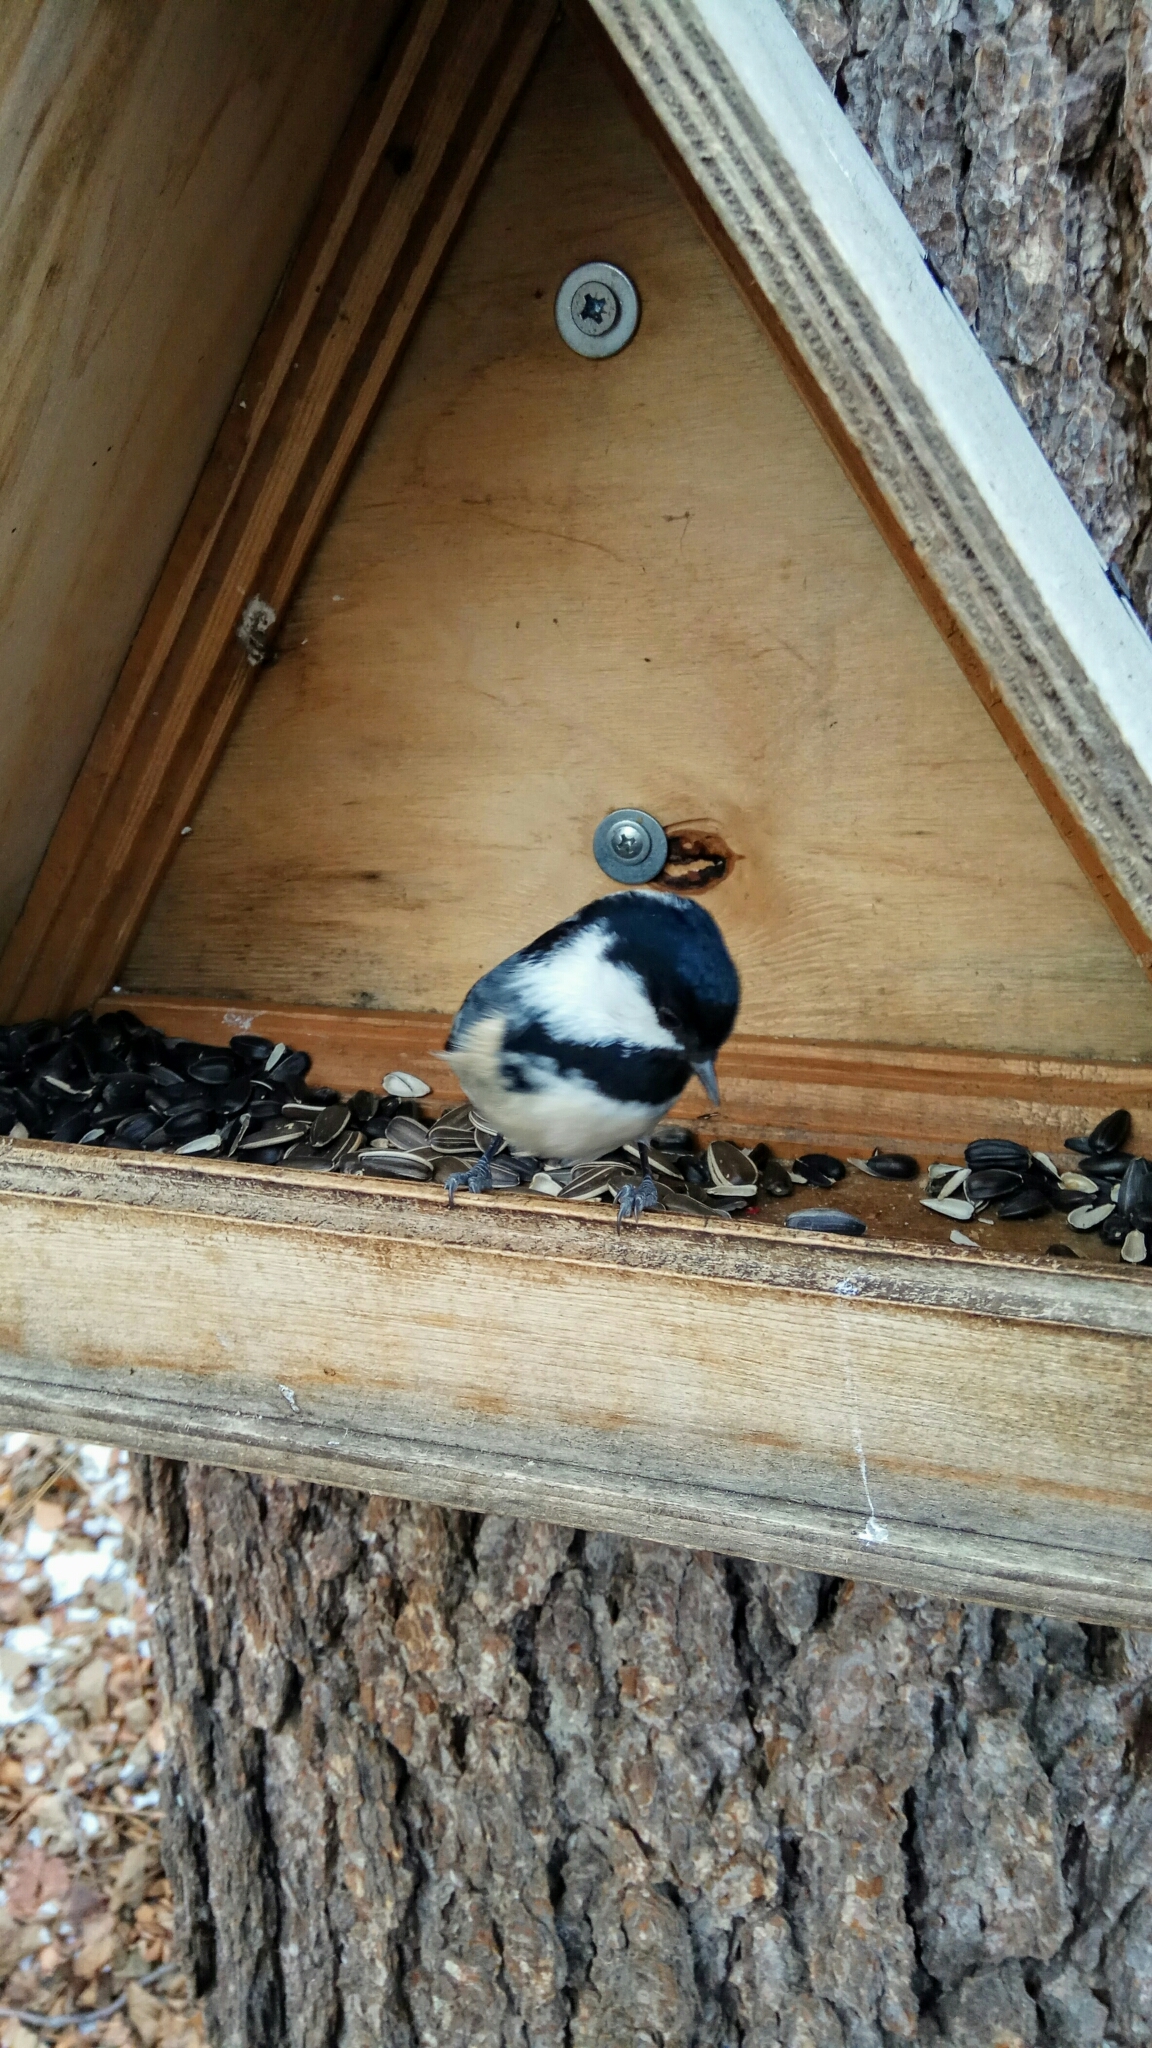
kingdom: Animalia
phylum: Chordata
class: Aves
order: Passeriformes
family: Paridae
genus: Periparus
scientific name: Periparus ater
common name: Coal tit
